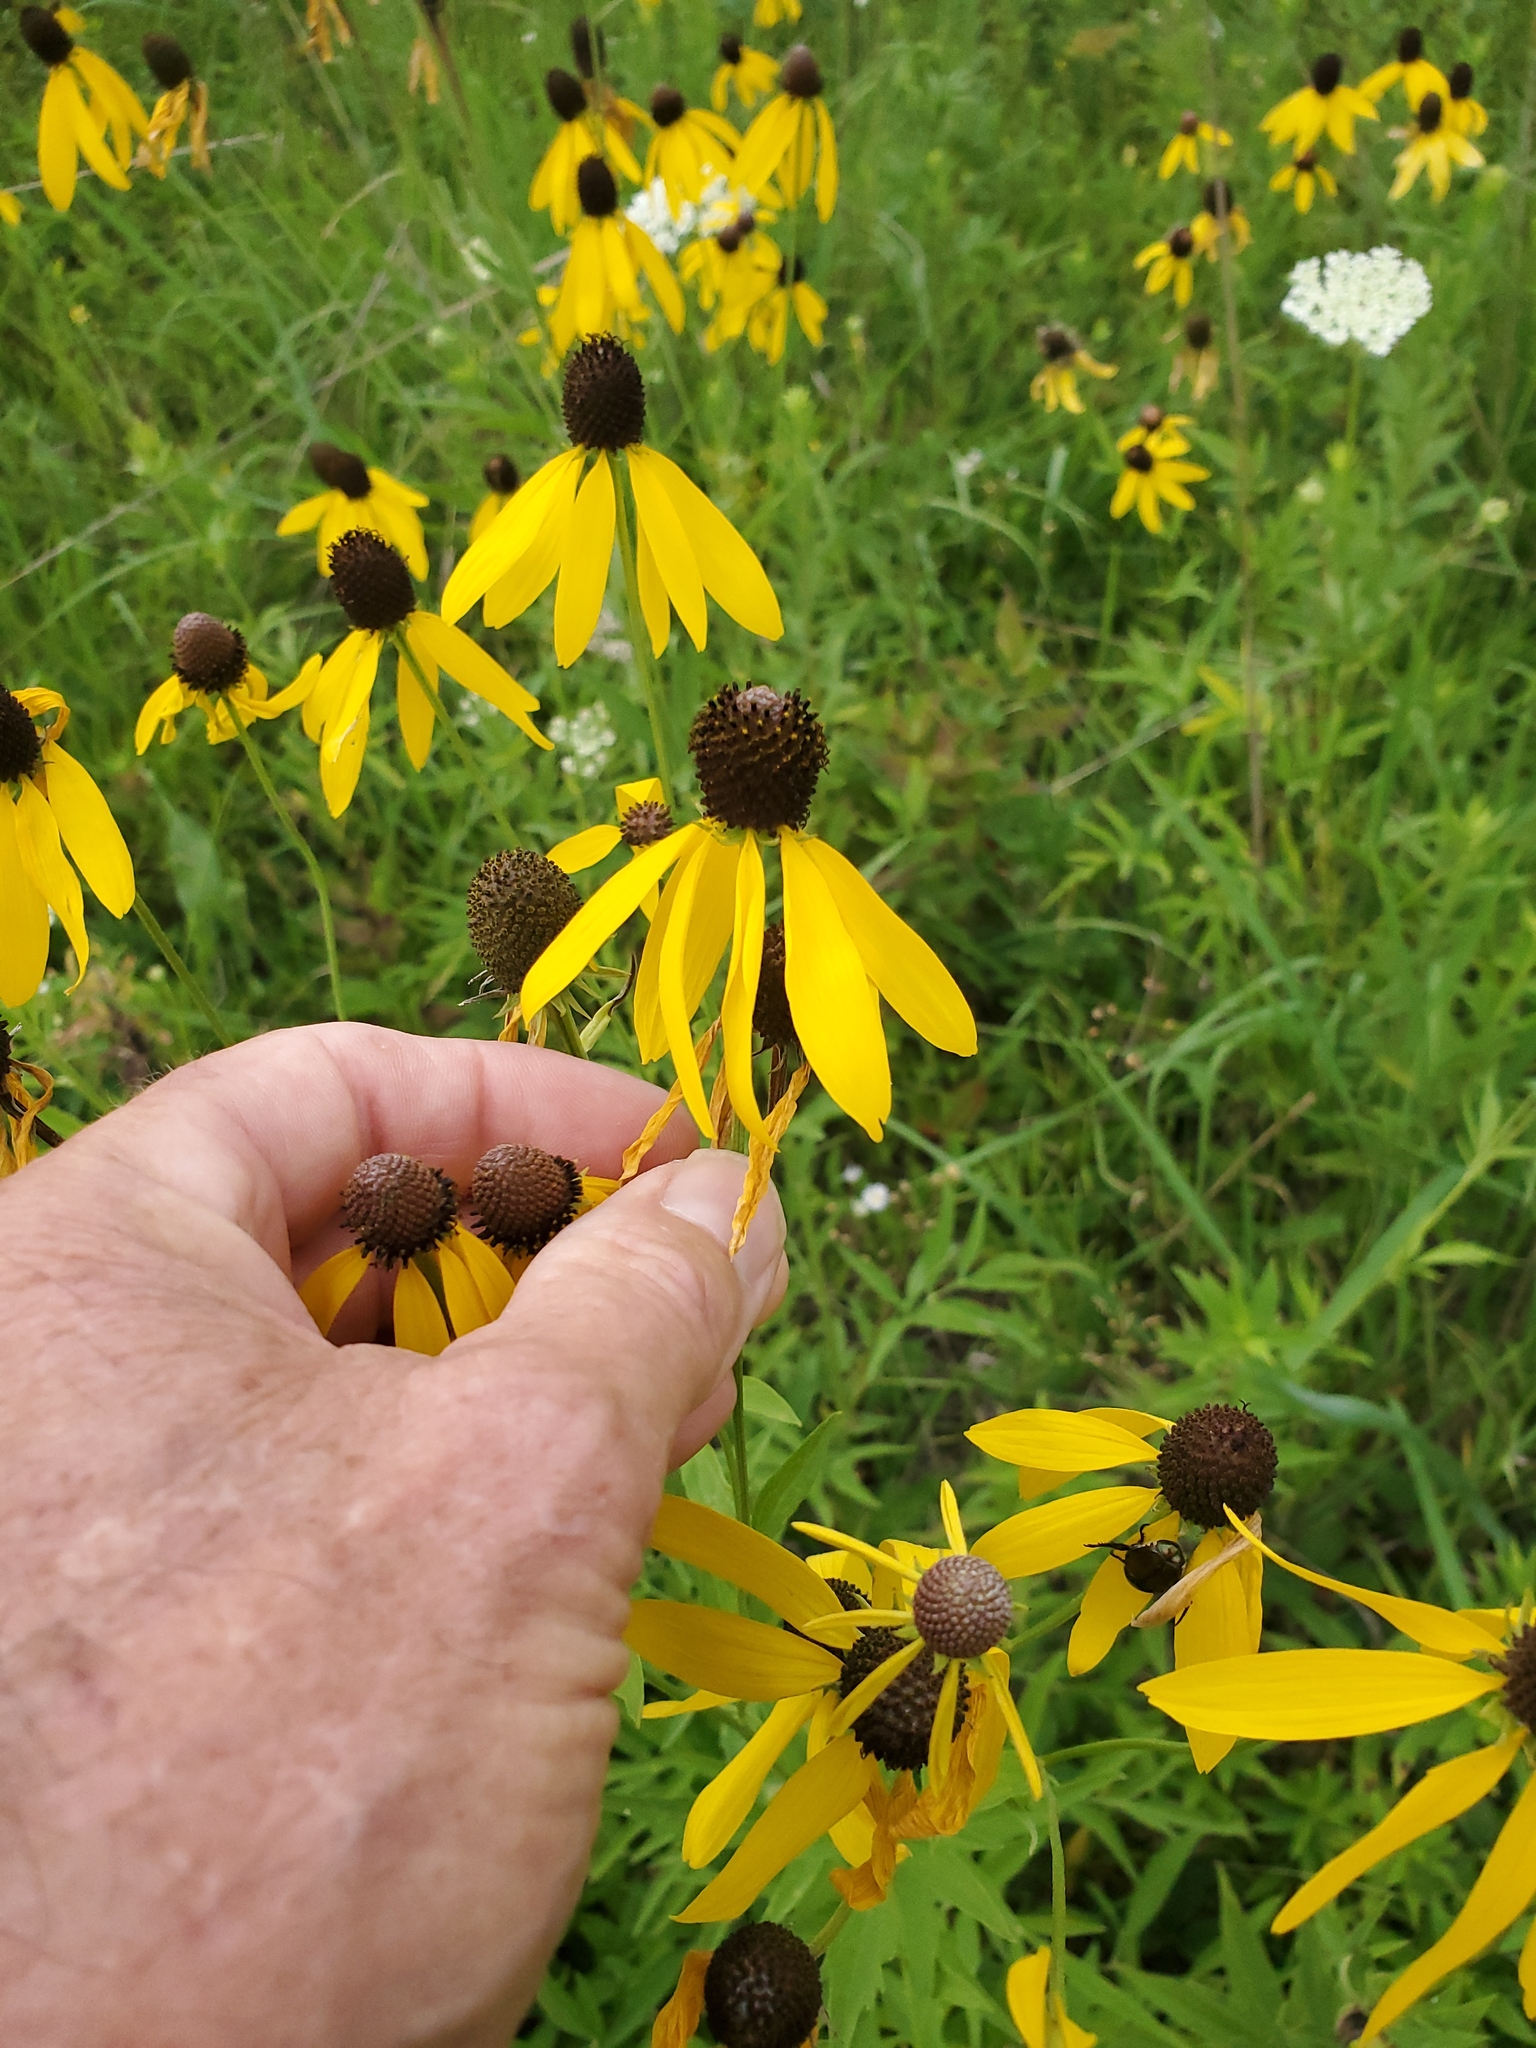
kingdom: Plantae
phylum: Tracheophyta
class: Magnoliopsida
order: Asterales
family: Asteraceae
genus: Ratibida
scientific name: Ratibida pinnata
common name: Drooping prairie-coneflower
